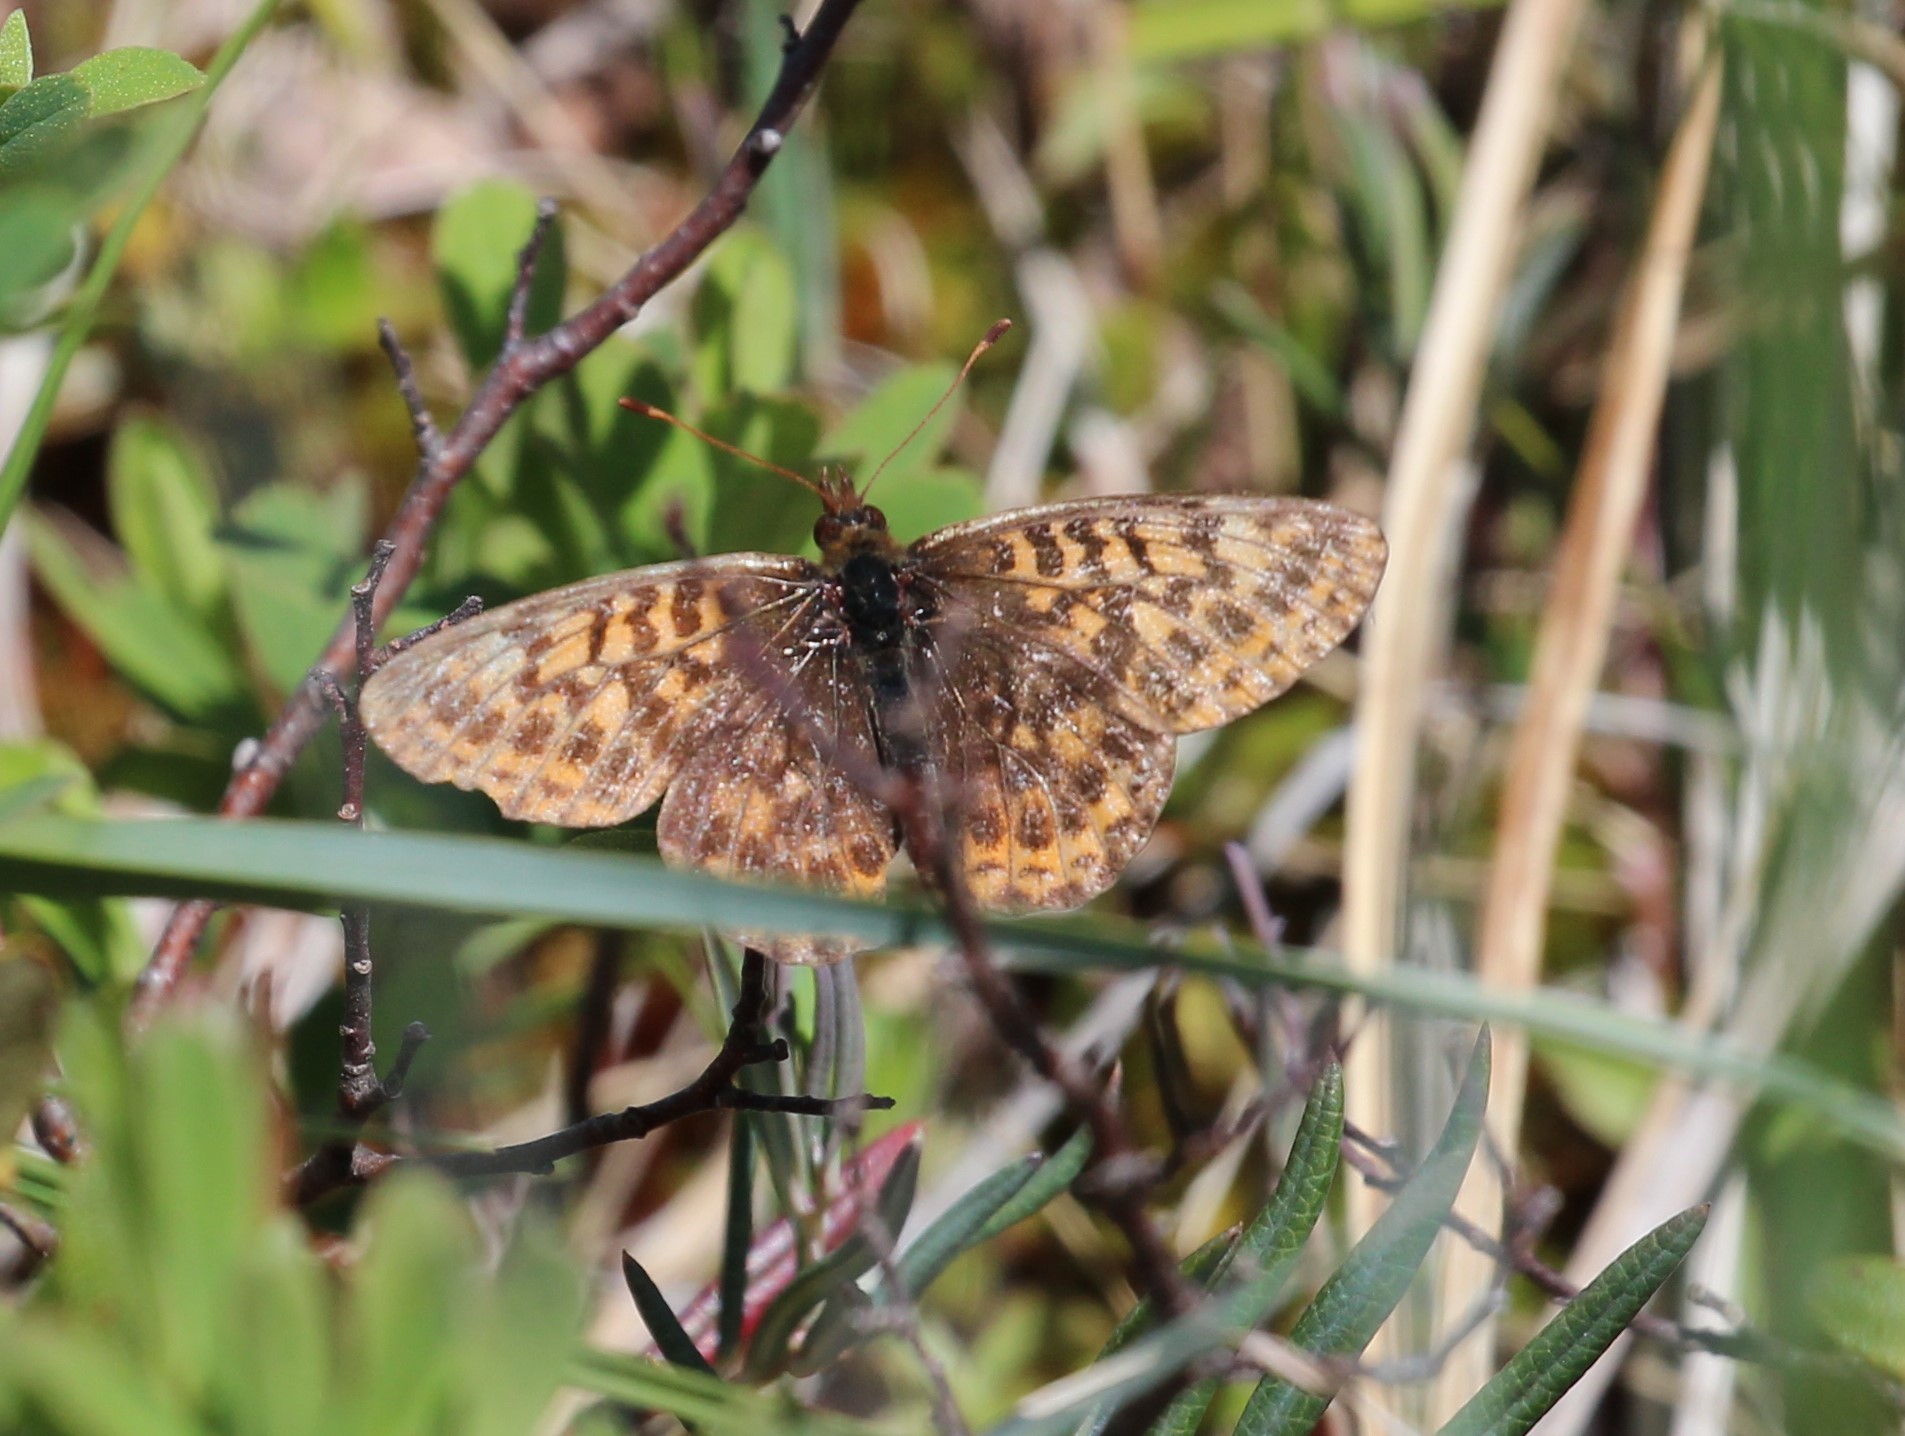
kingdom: Animalia
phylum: Arthropoda
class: Insecta
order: Lepidoptera
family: Nymphalidae
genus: Boloria
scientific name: Boloria frigga
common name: Frigga's fritillary
